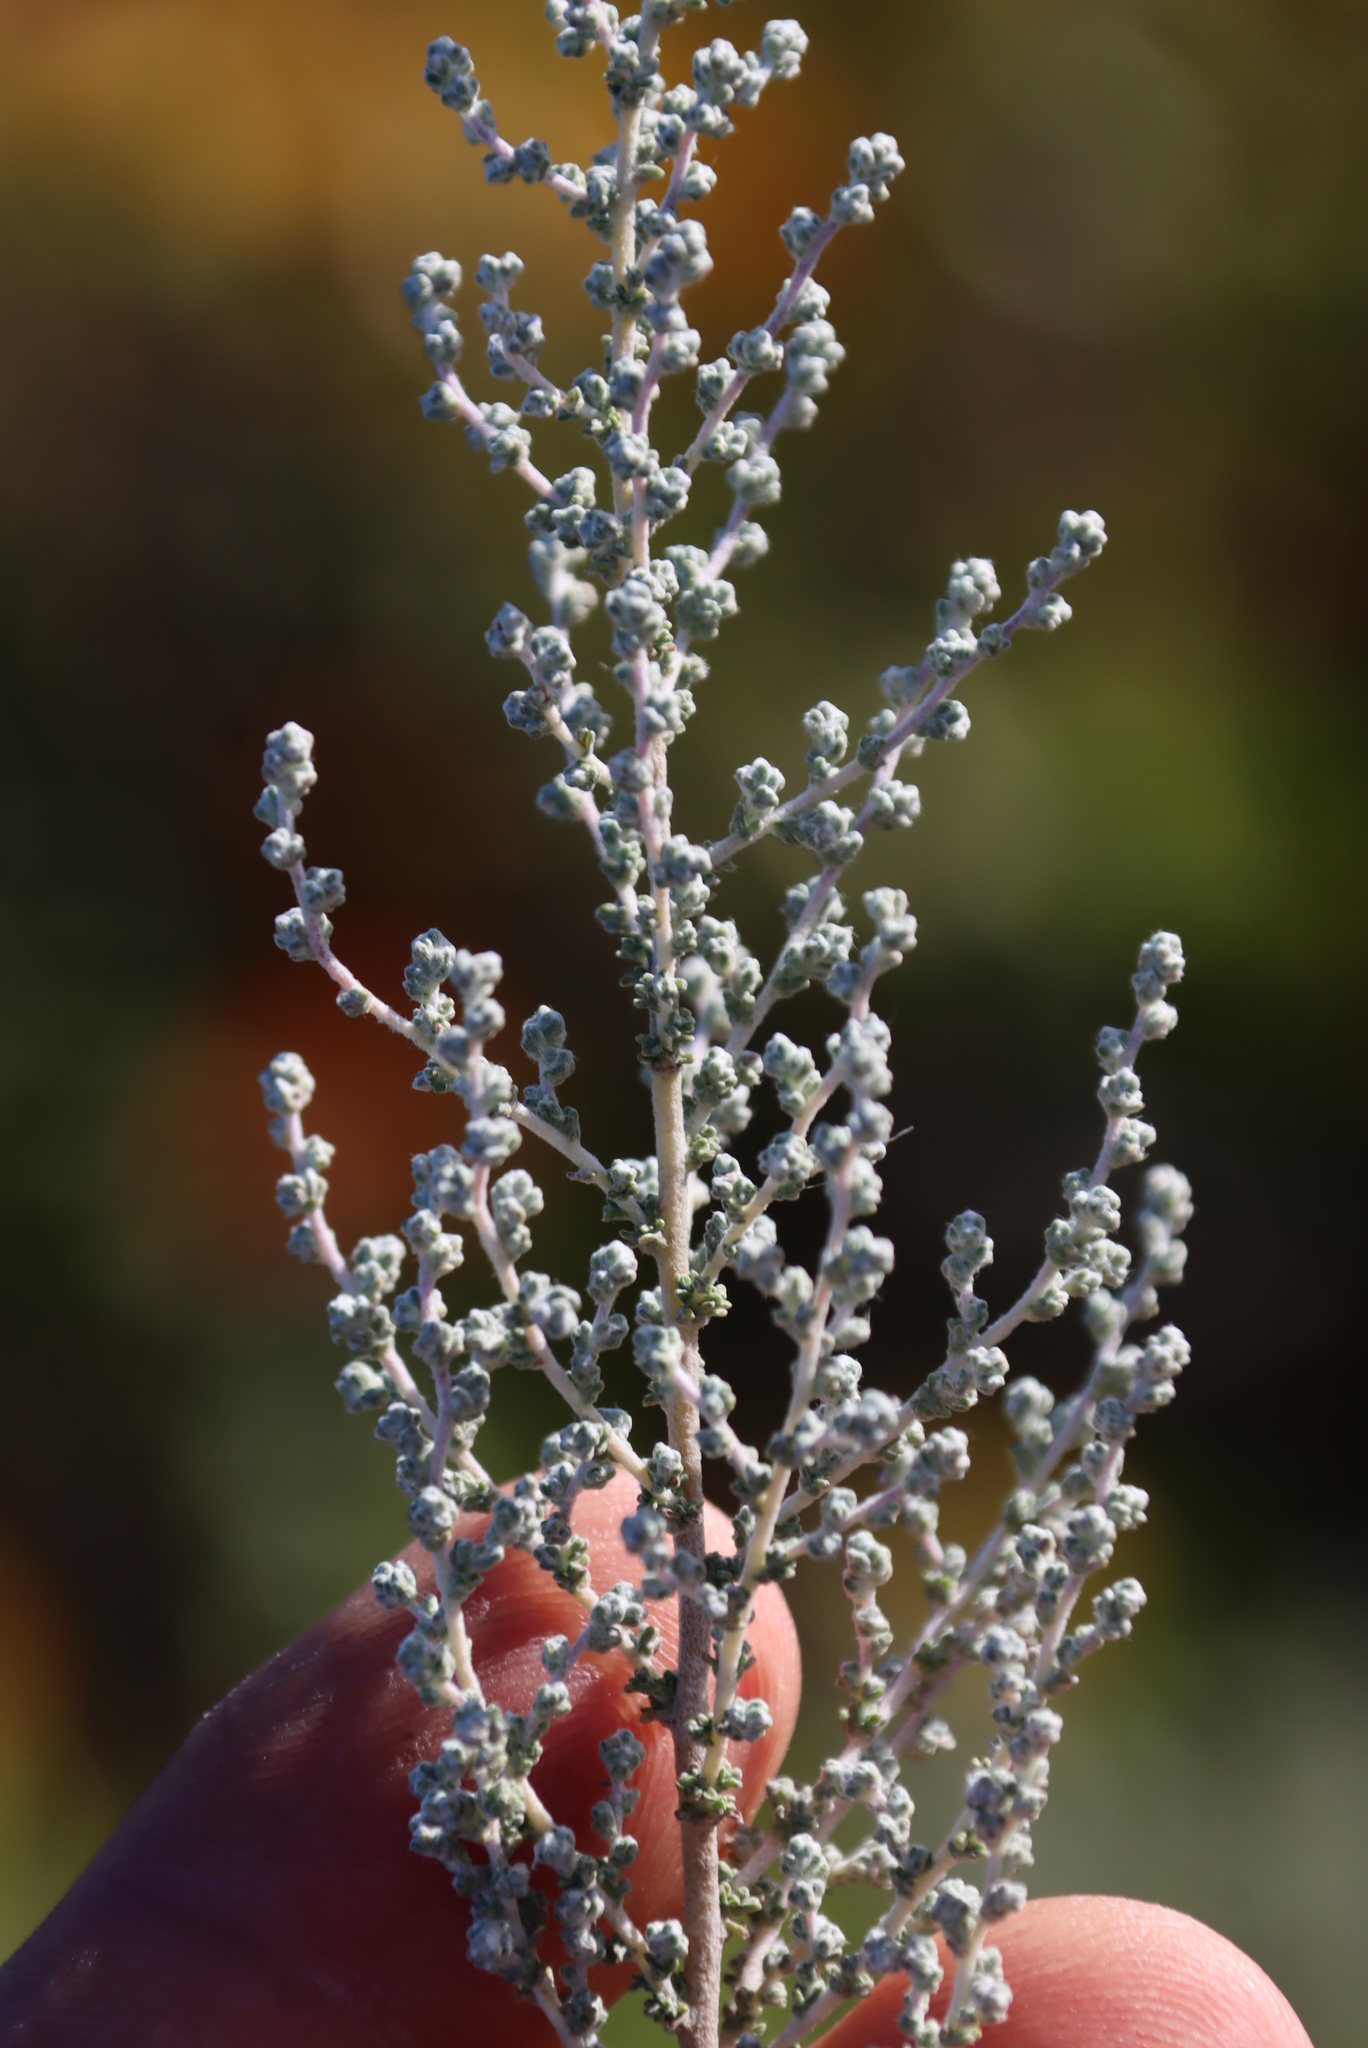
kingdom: Plantae
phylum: Tracheophyta
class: Magnoliopsida
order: Asterales
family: Asteraceae
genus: Seriphium
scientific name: Seriphium cinereum
